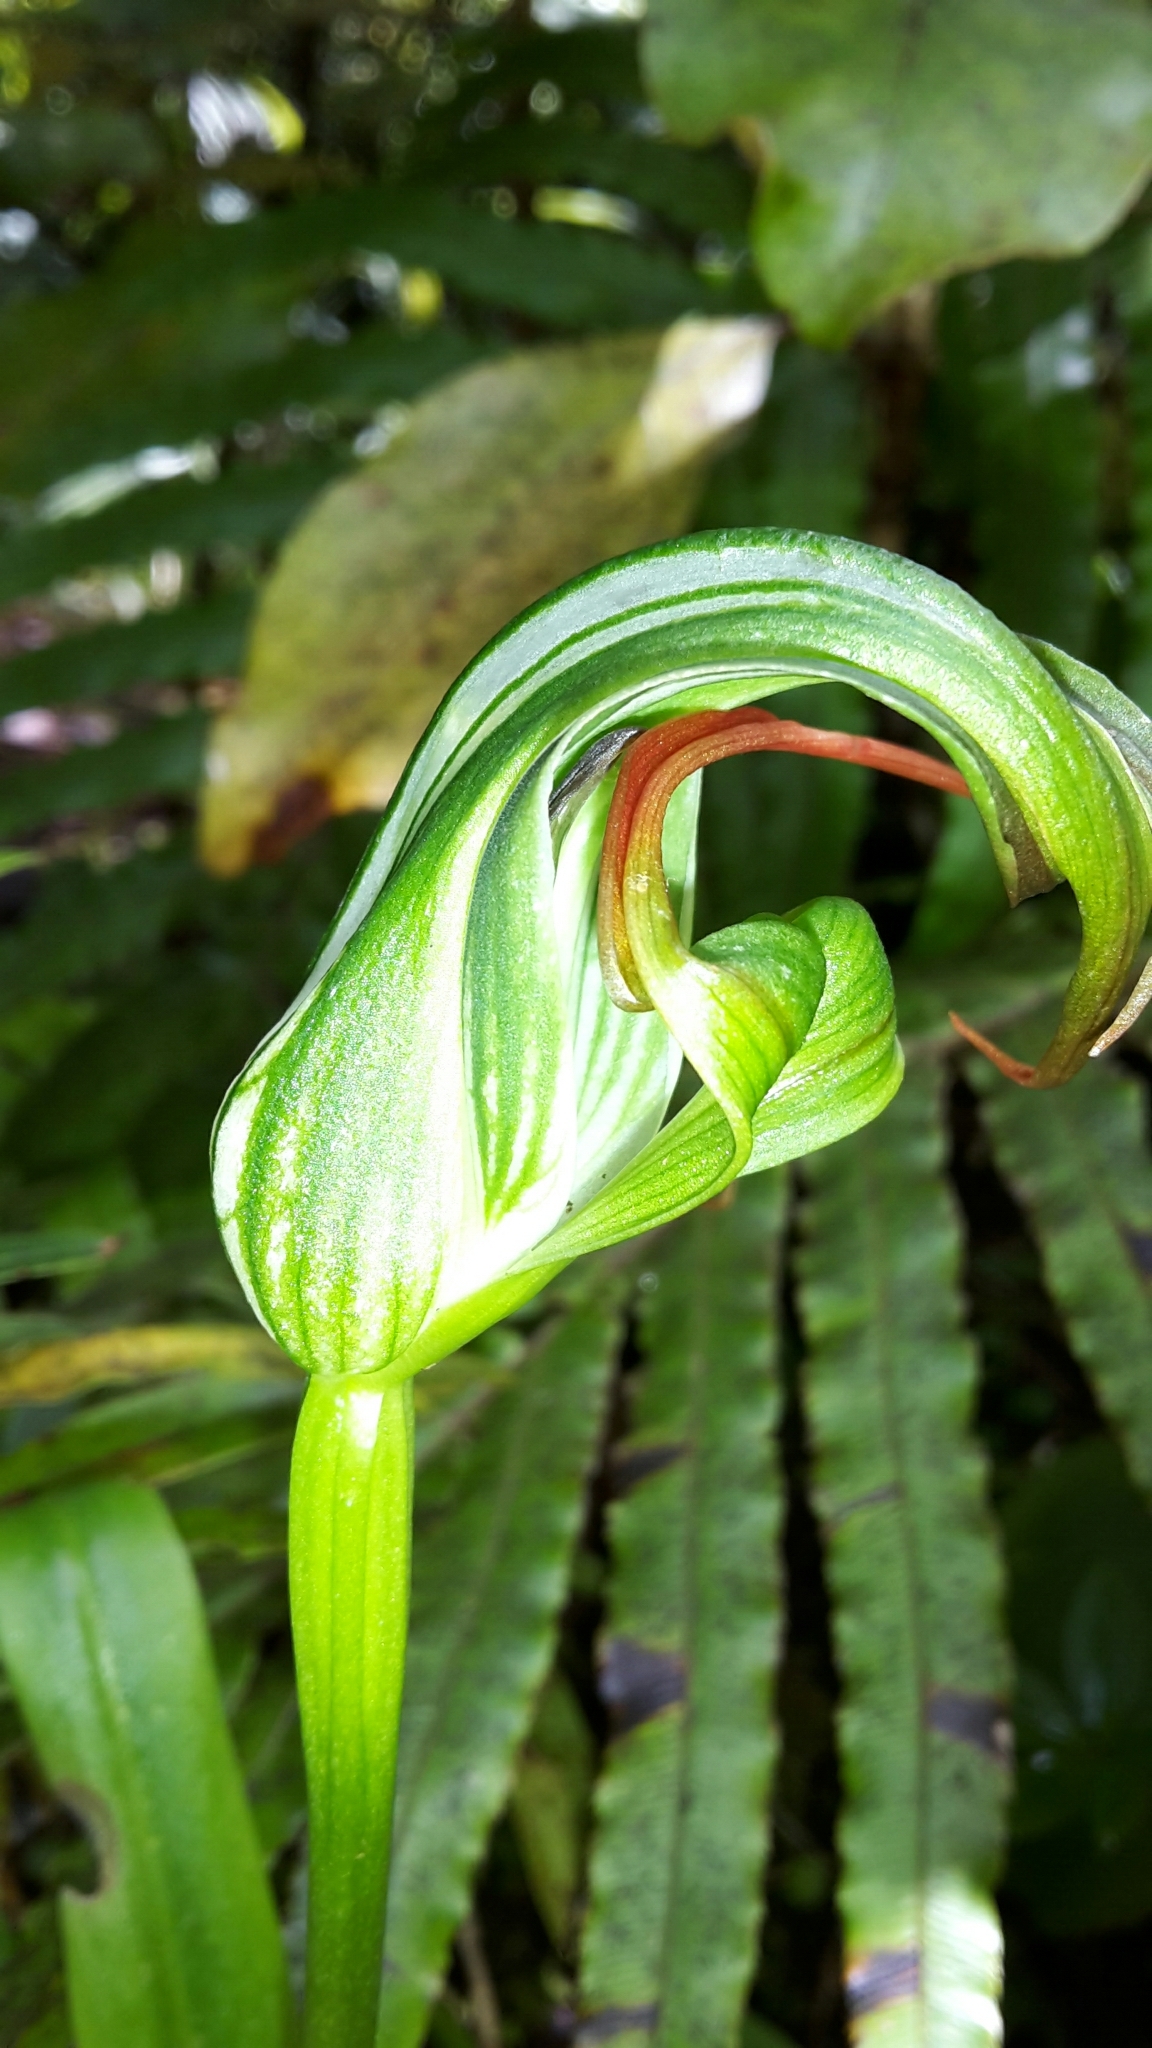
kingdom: Plantae
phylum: Tracheophyta
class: Liliopsida
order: Asparagales
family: Orchidaceae
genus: Pterostylis
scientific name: Pterostylis patens
